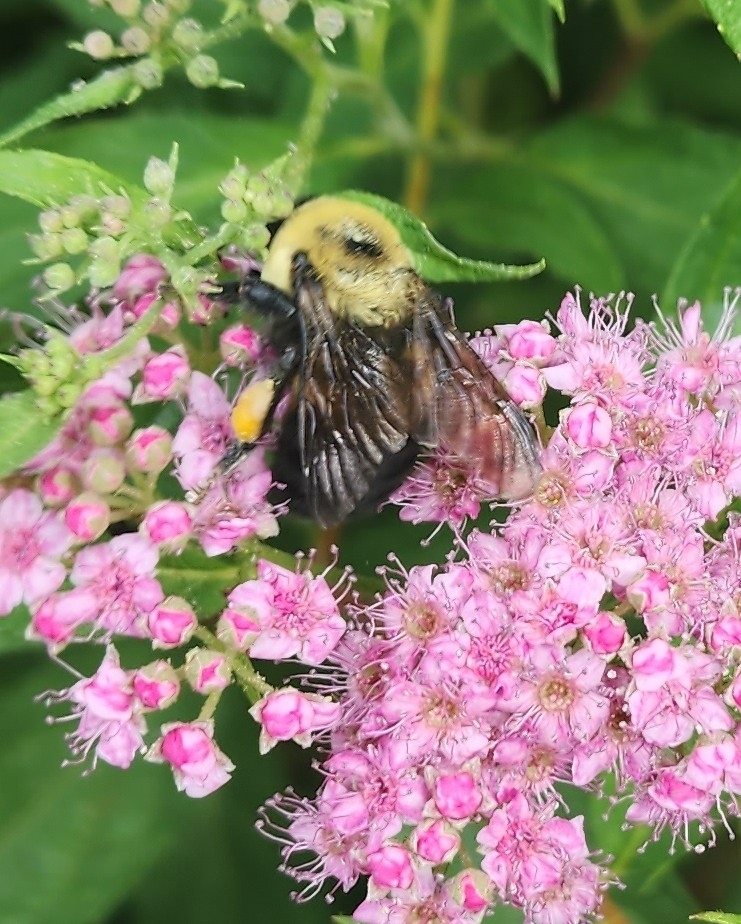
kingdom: Animalia
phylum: Arthropoda
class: Insecta
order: Hymenoptera
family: Apidae
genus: Bombus
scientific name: Bombus griseocollis
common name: Brown-belted bumble bee
